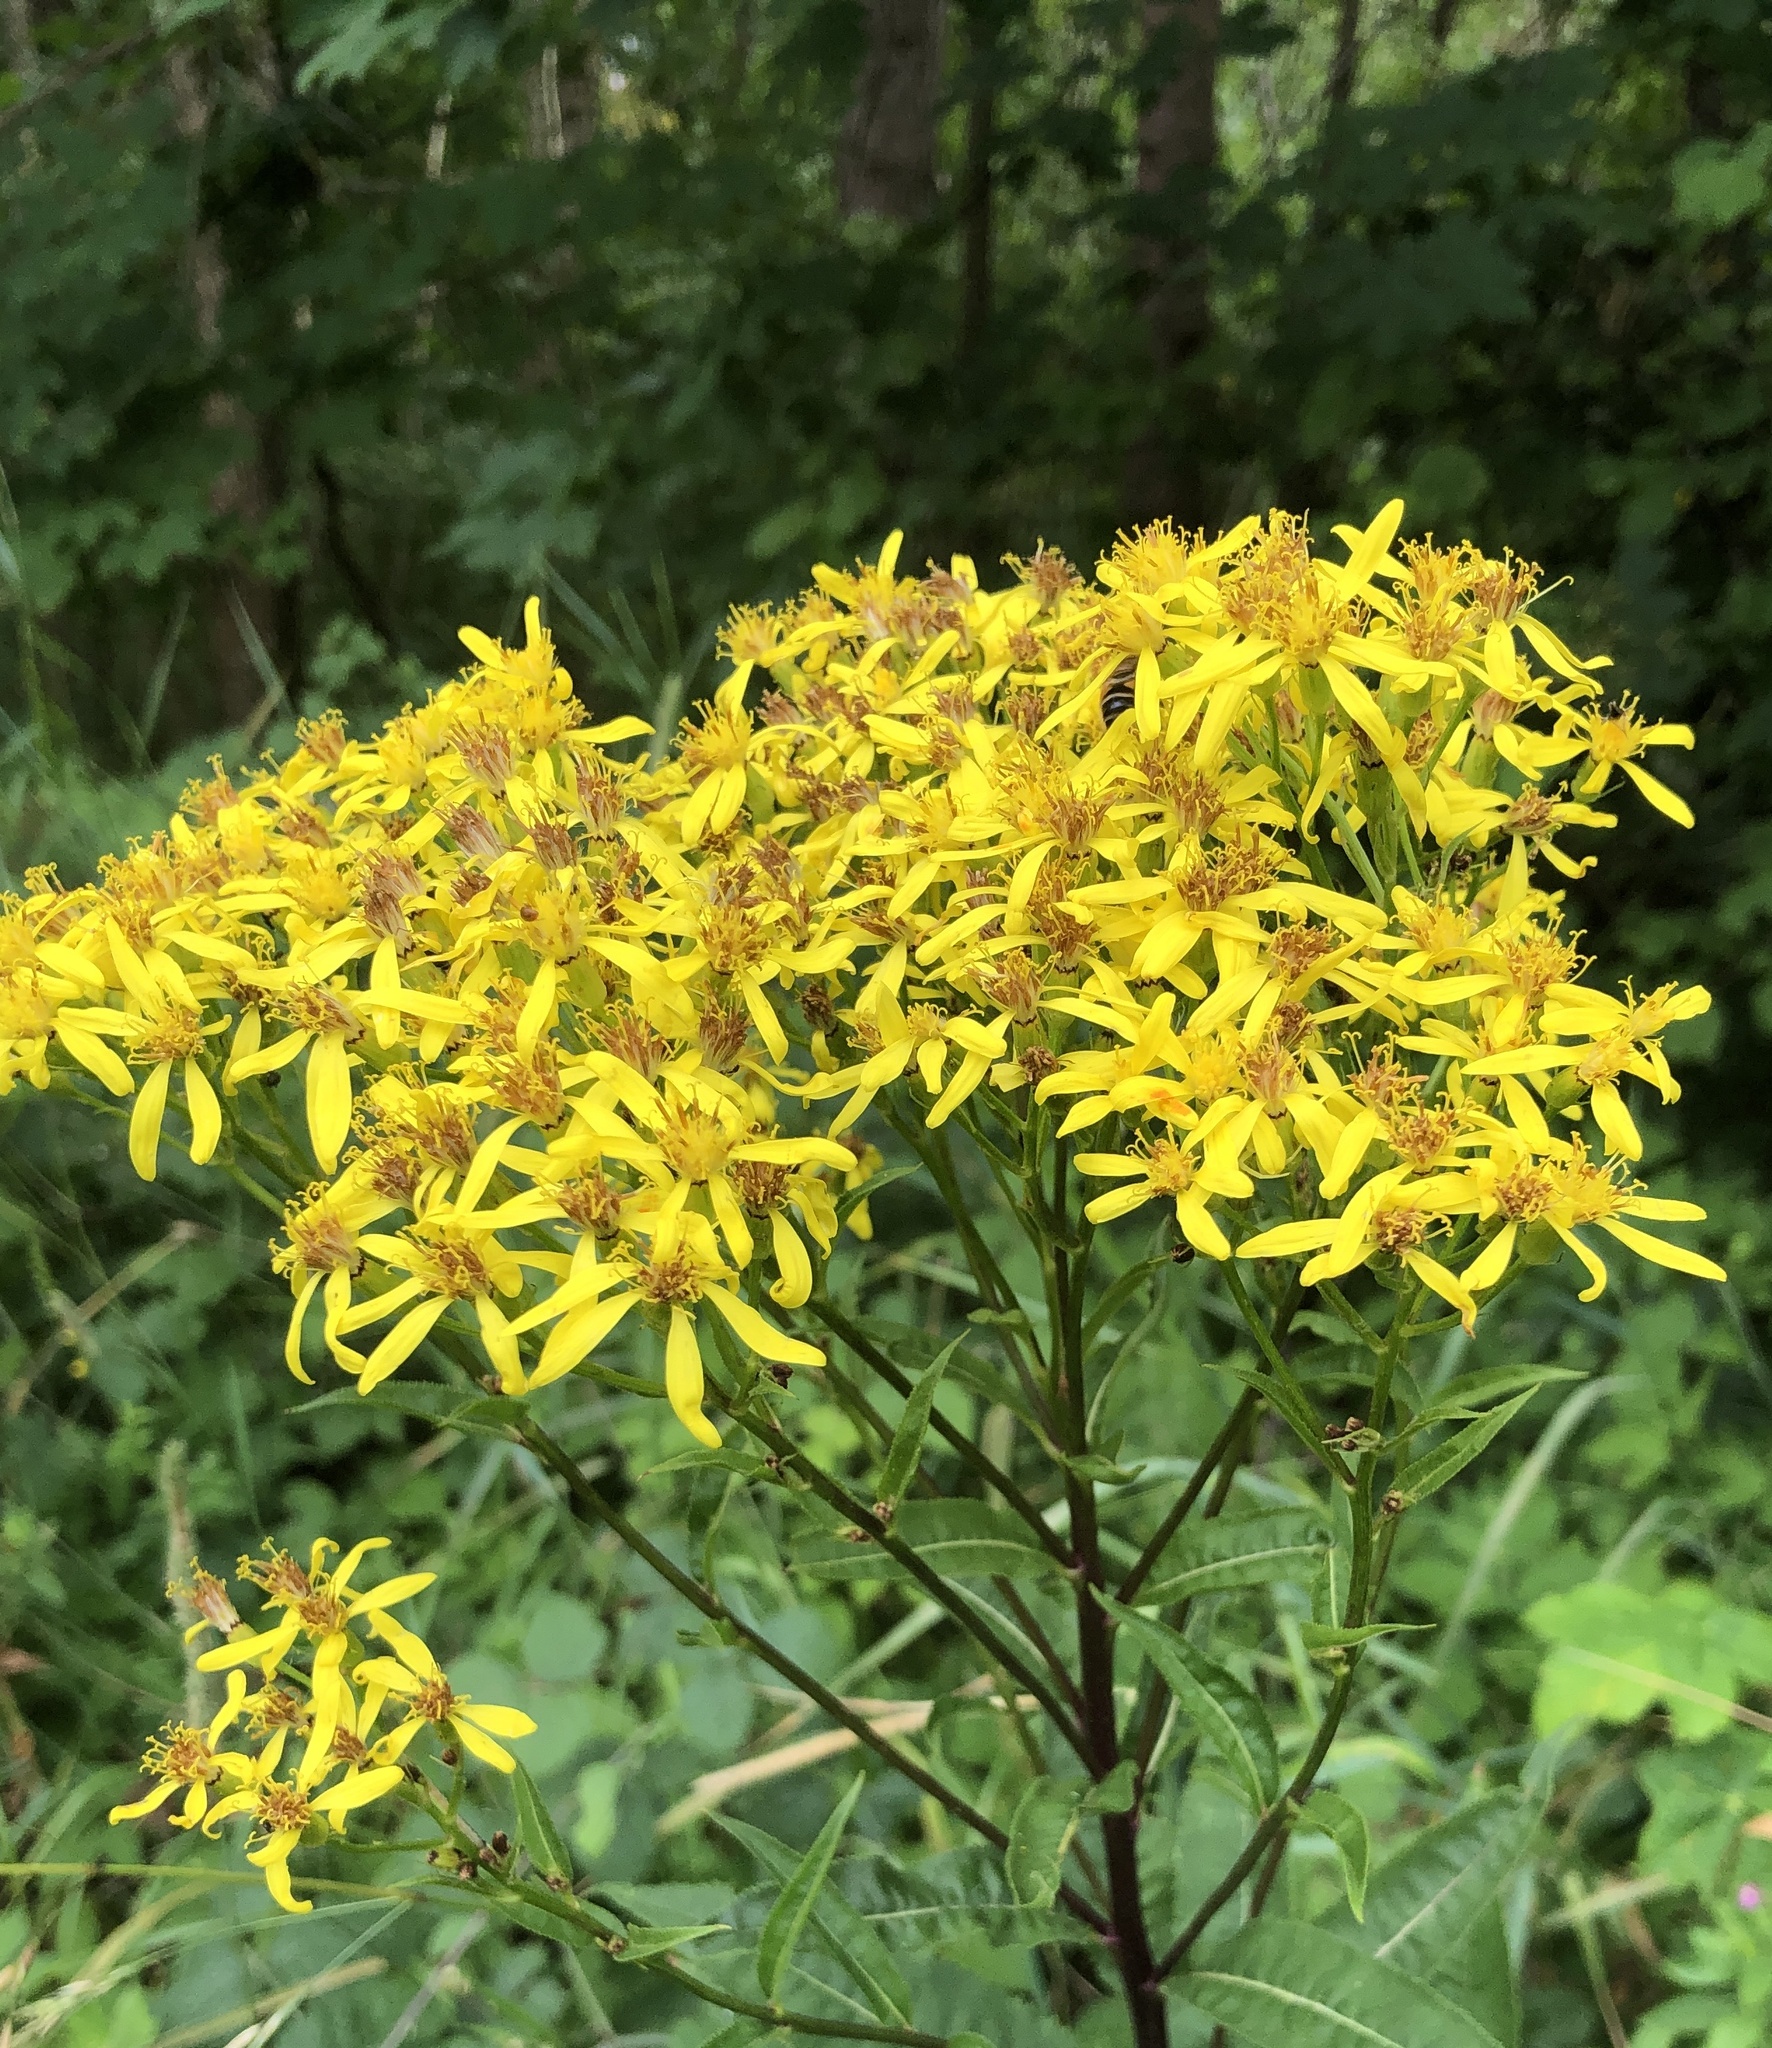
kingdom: Plantae
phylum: Tracheophyta
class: Magnoliopsida
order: Asterales
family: Asteraceae
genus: Senecio
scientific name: Senecio ovatus
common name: Wood ragwort
